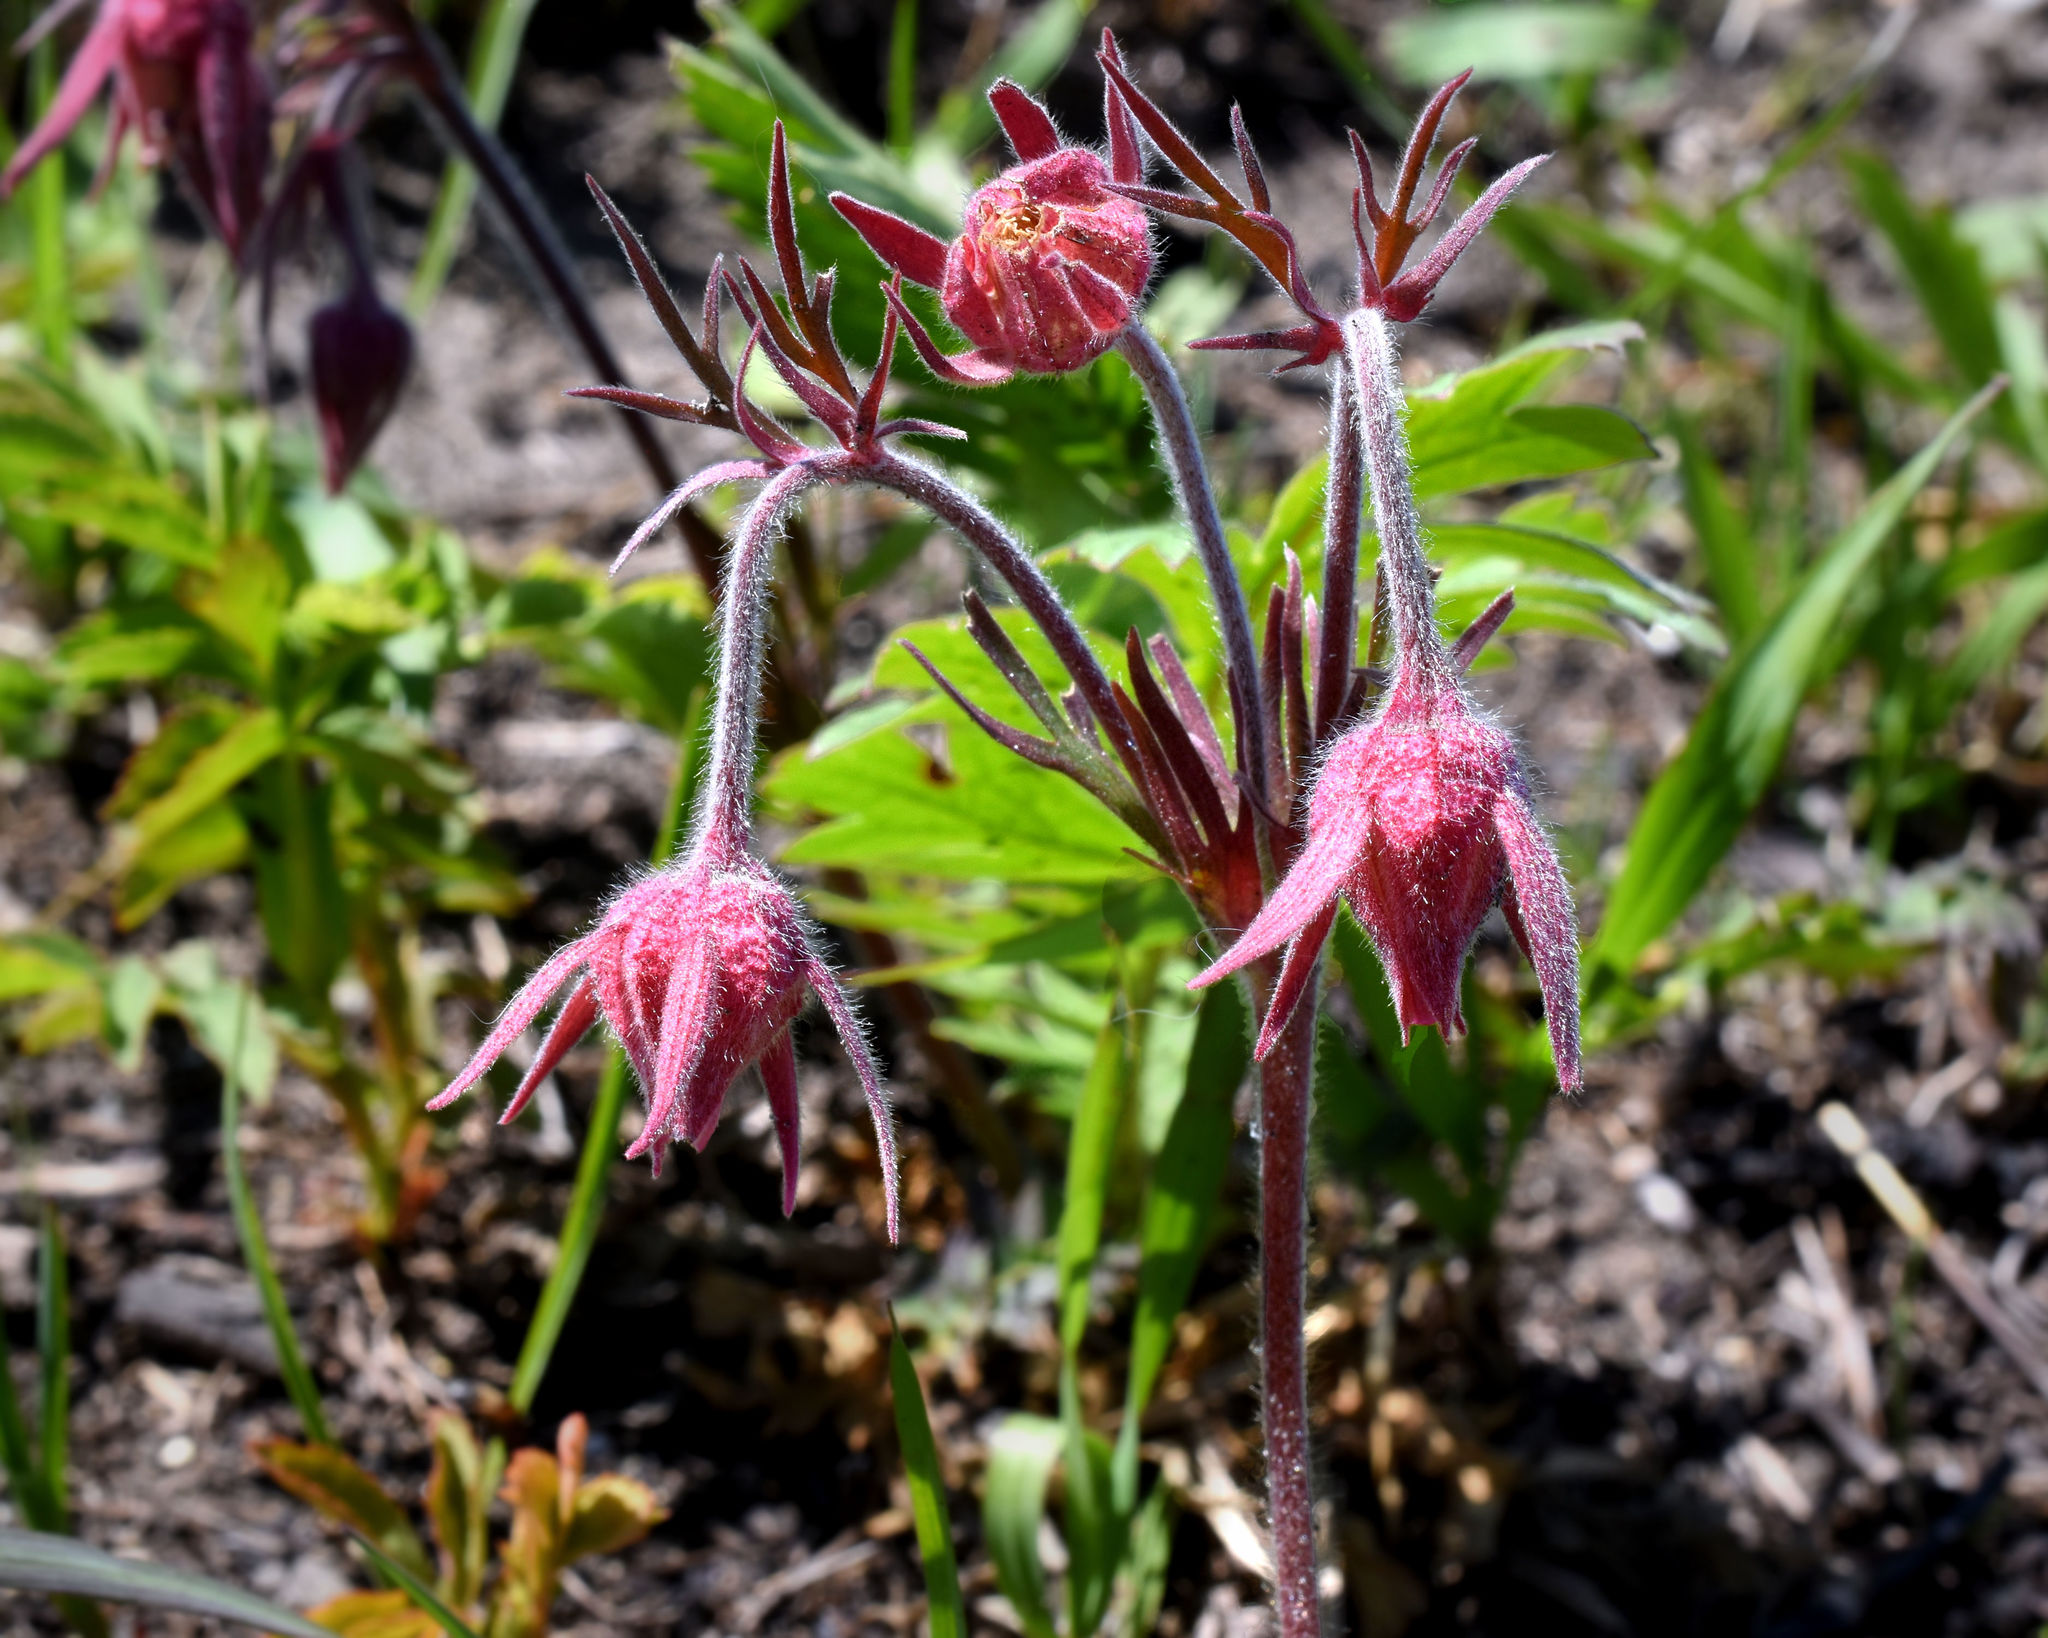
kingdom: Plantae
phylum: Tracheophyta
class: Magnoliopsida
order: Rosales
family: Rosaceae
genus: Geum
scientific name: Geum triflorum
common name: Old man's whiskers
